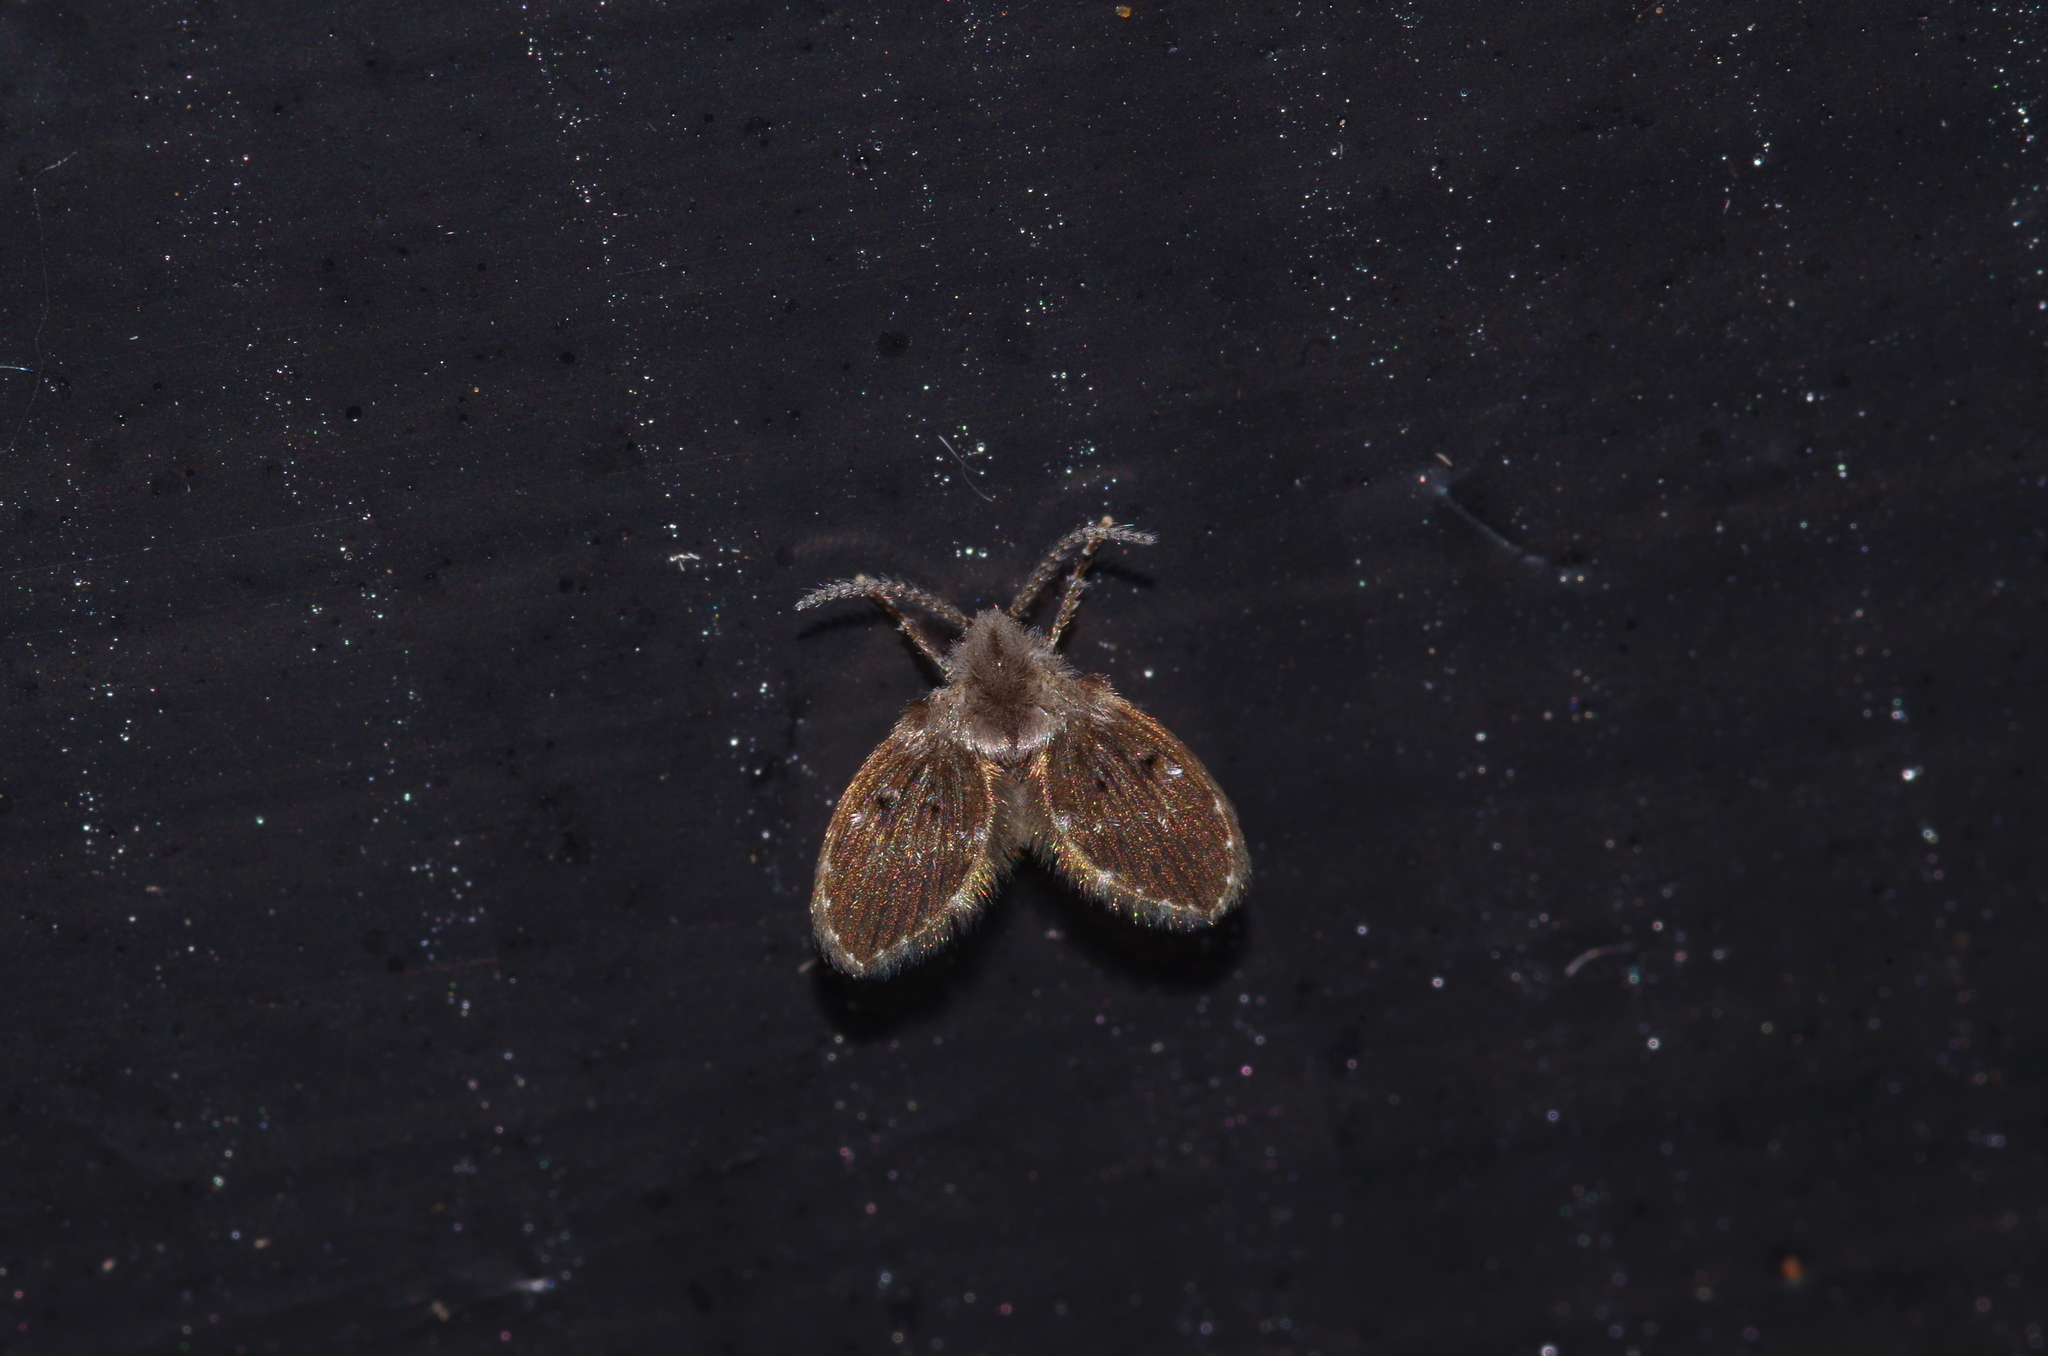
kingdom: Animalia
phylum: Arthropoda
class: Insecta
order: Diptera
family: Psychodidae
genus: Clogmia
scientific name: Clogmia albipunctatus
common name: White-spotted moth fly
